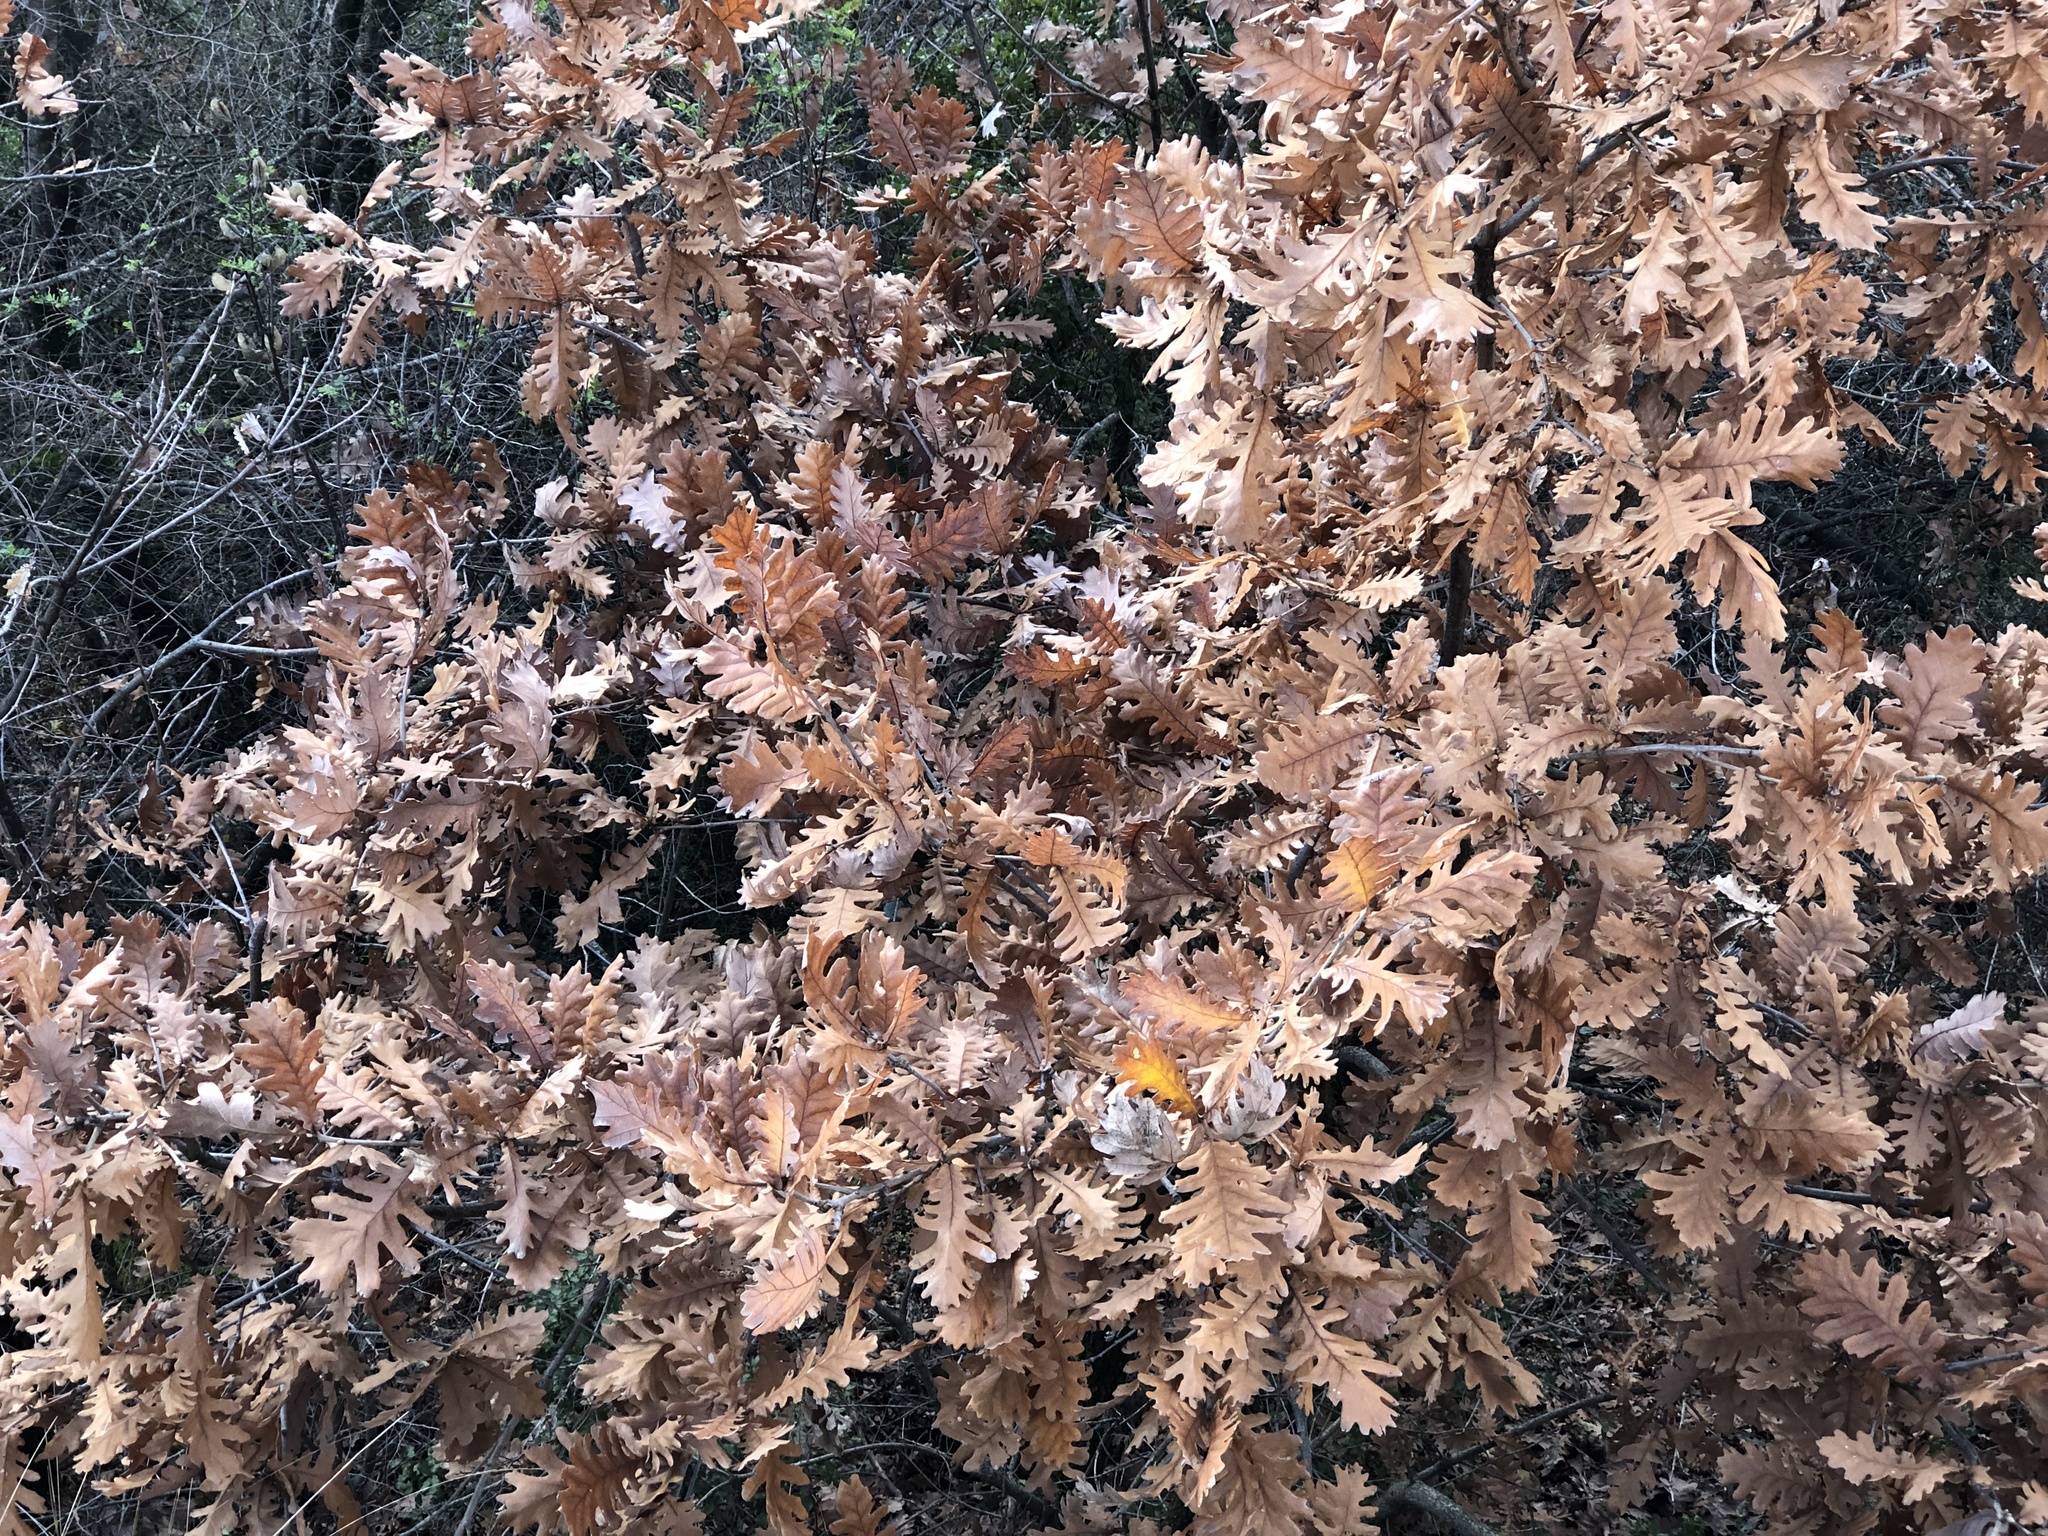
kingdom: Plantae
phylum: Tracheophyta
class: Magnoliopsida
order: Fagales
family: Fagaceae
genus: Quercus
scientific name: Quercus conferta
